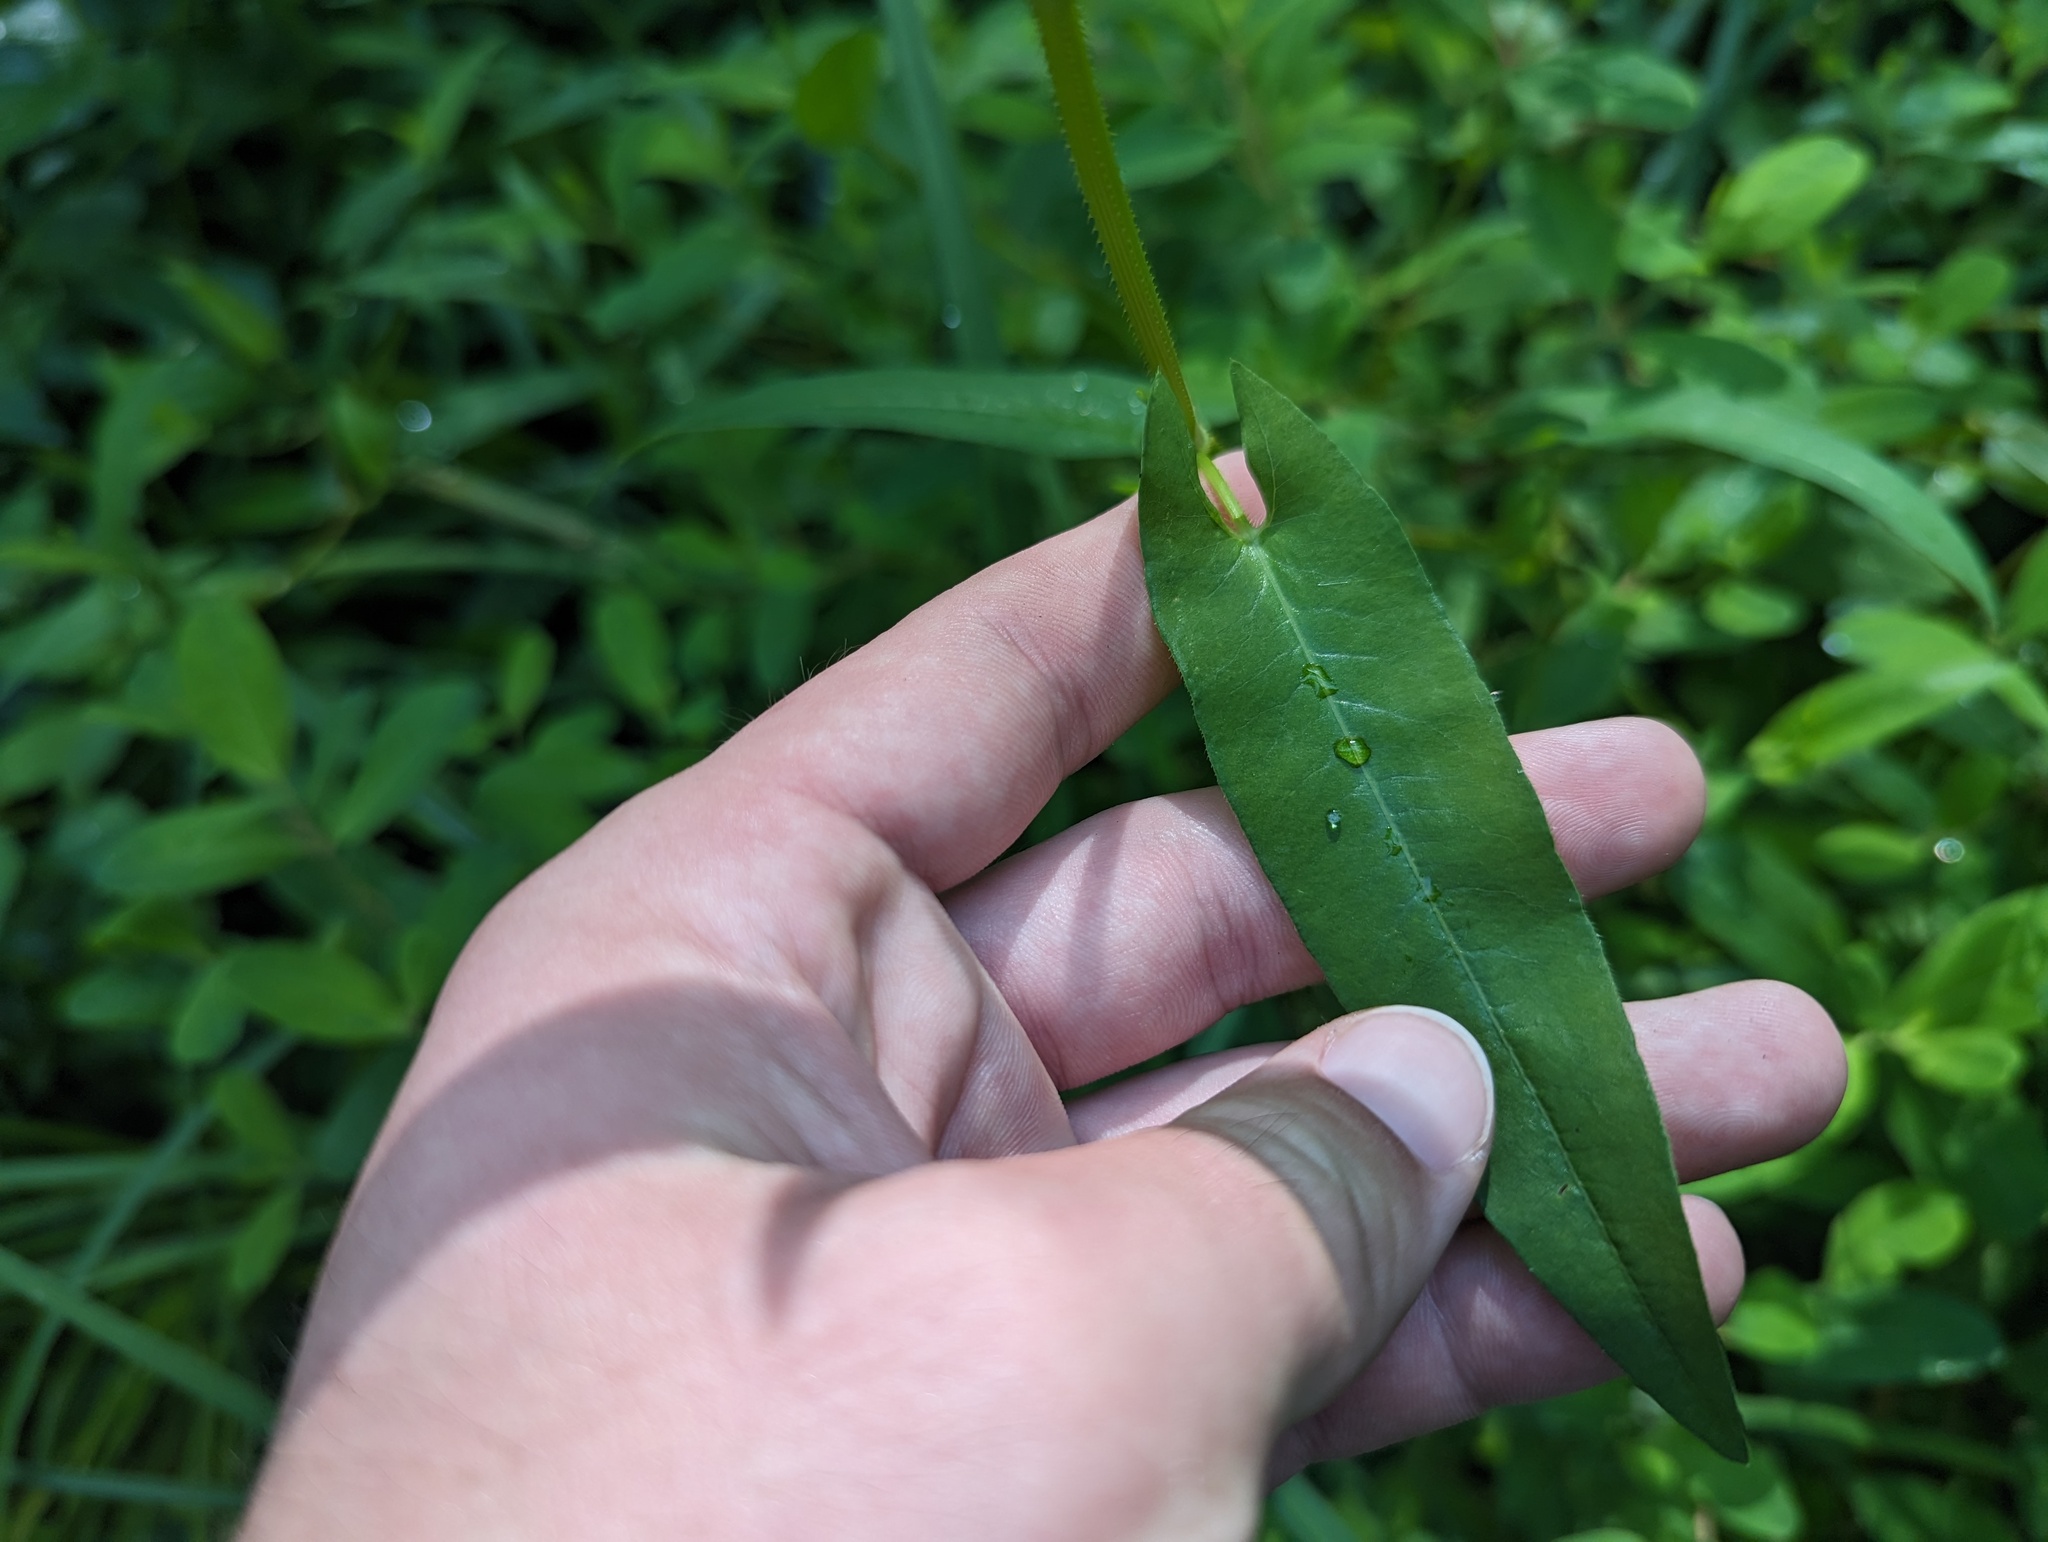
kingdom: Plantae
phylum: Tracheophyta
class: Magnoliopsida
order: Caryophyllales
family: Polygonaceae
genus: Persicaria
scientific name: Persicaria sagittata
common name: American tearthumb
